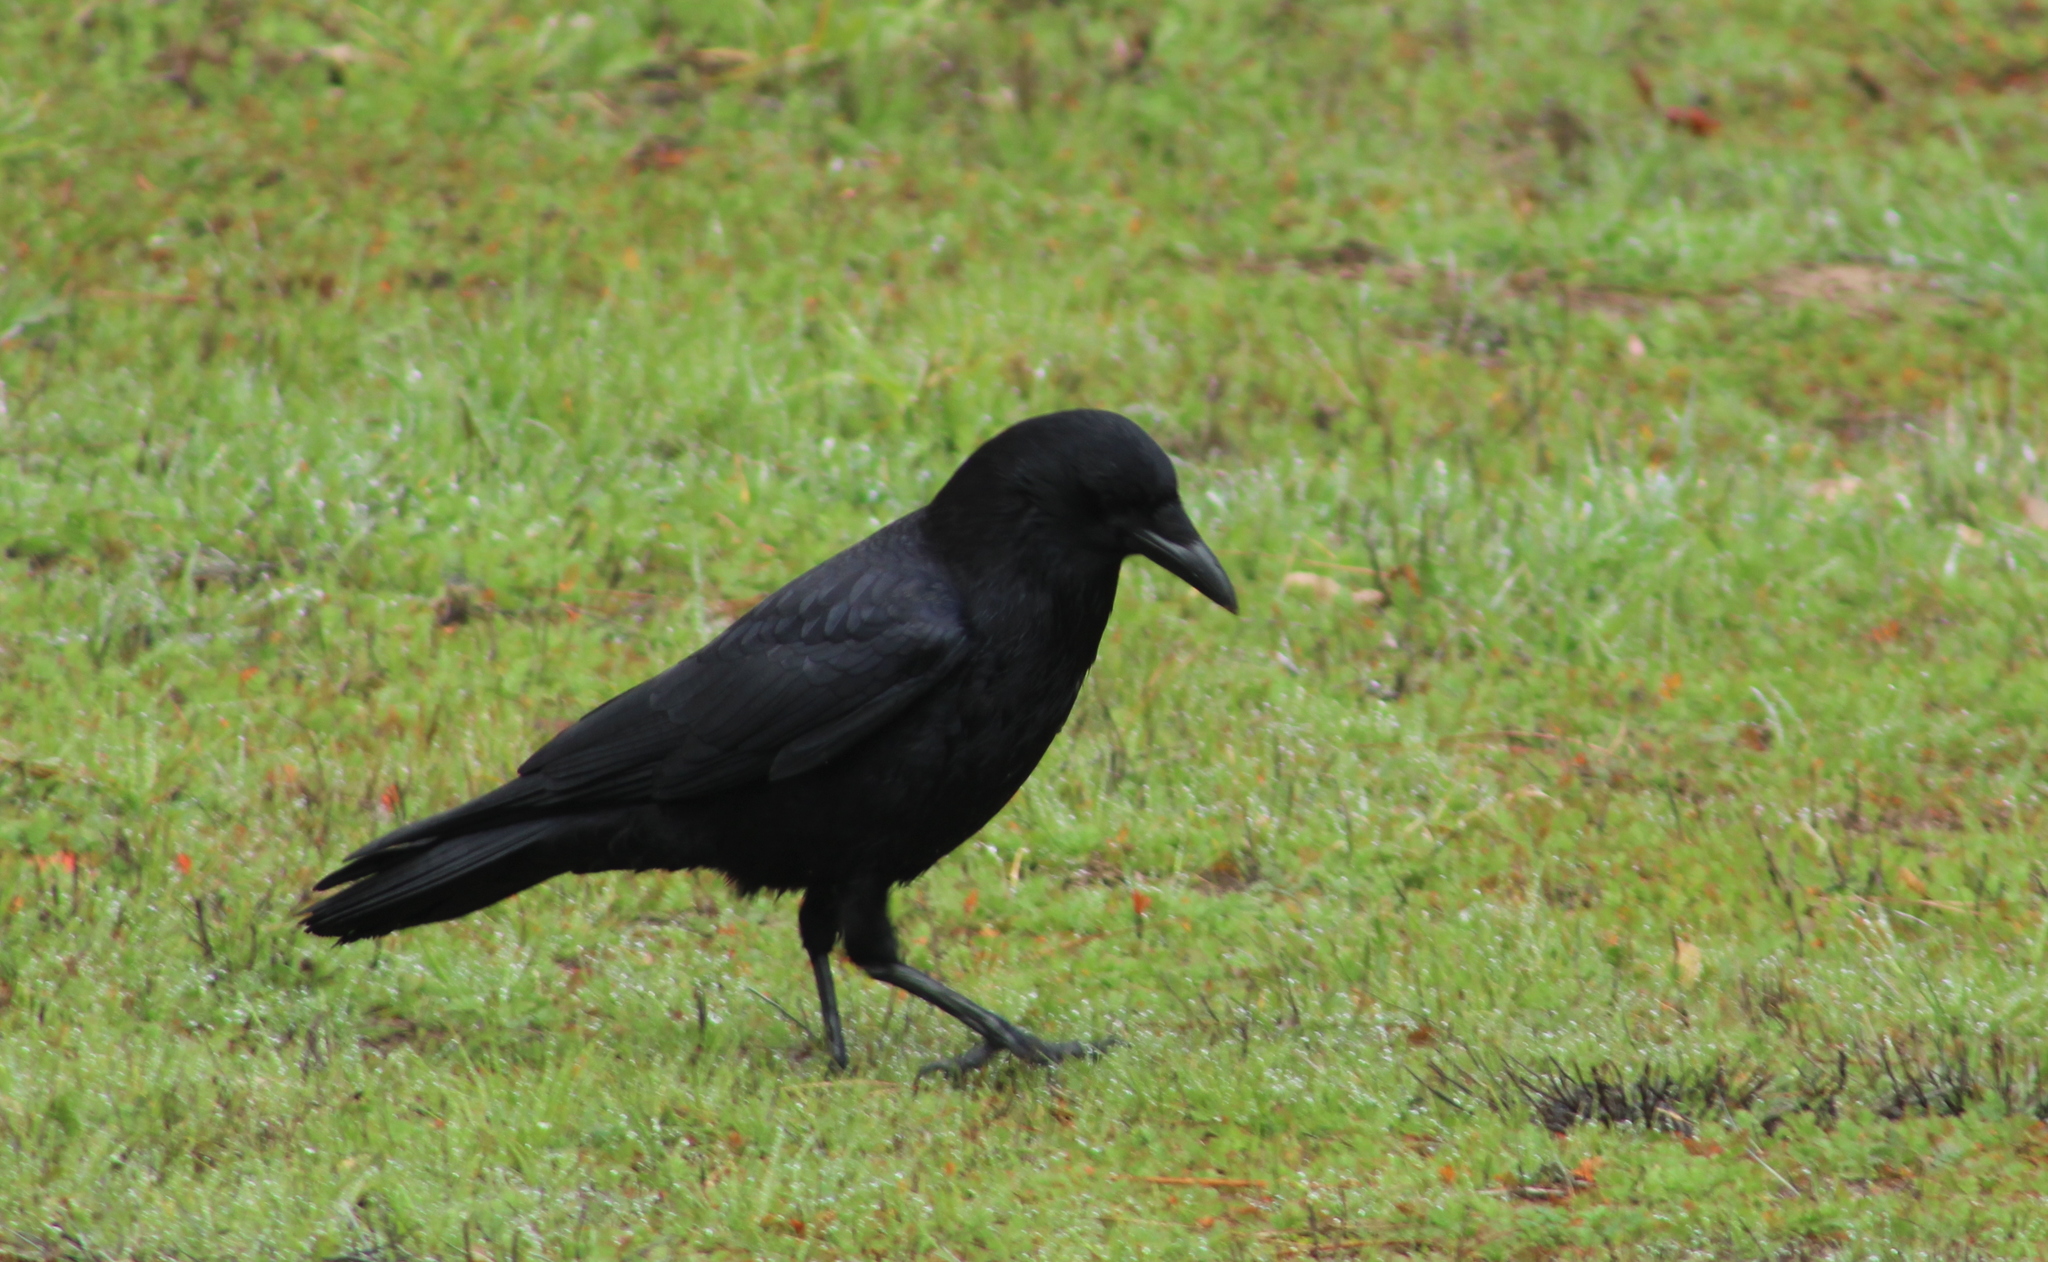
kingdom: Animalia
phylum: Chordata
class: Aves
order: Passeriformes
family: Corvidae
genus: Corvus
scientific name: Corvus brachyrhynchos
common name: American crow
